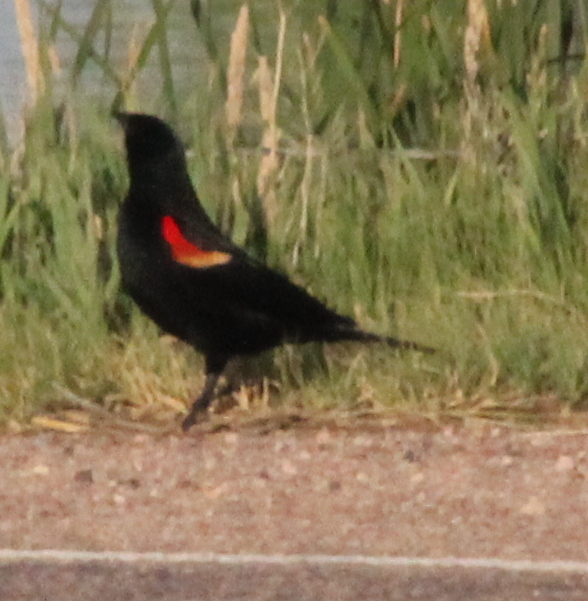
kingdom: Animalia
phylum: Chordata
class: Aves
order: Passeriformes
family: Icteridae
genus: Agelaius
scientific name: Agelaius phoeniceus
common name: Red-winged blackbird
